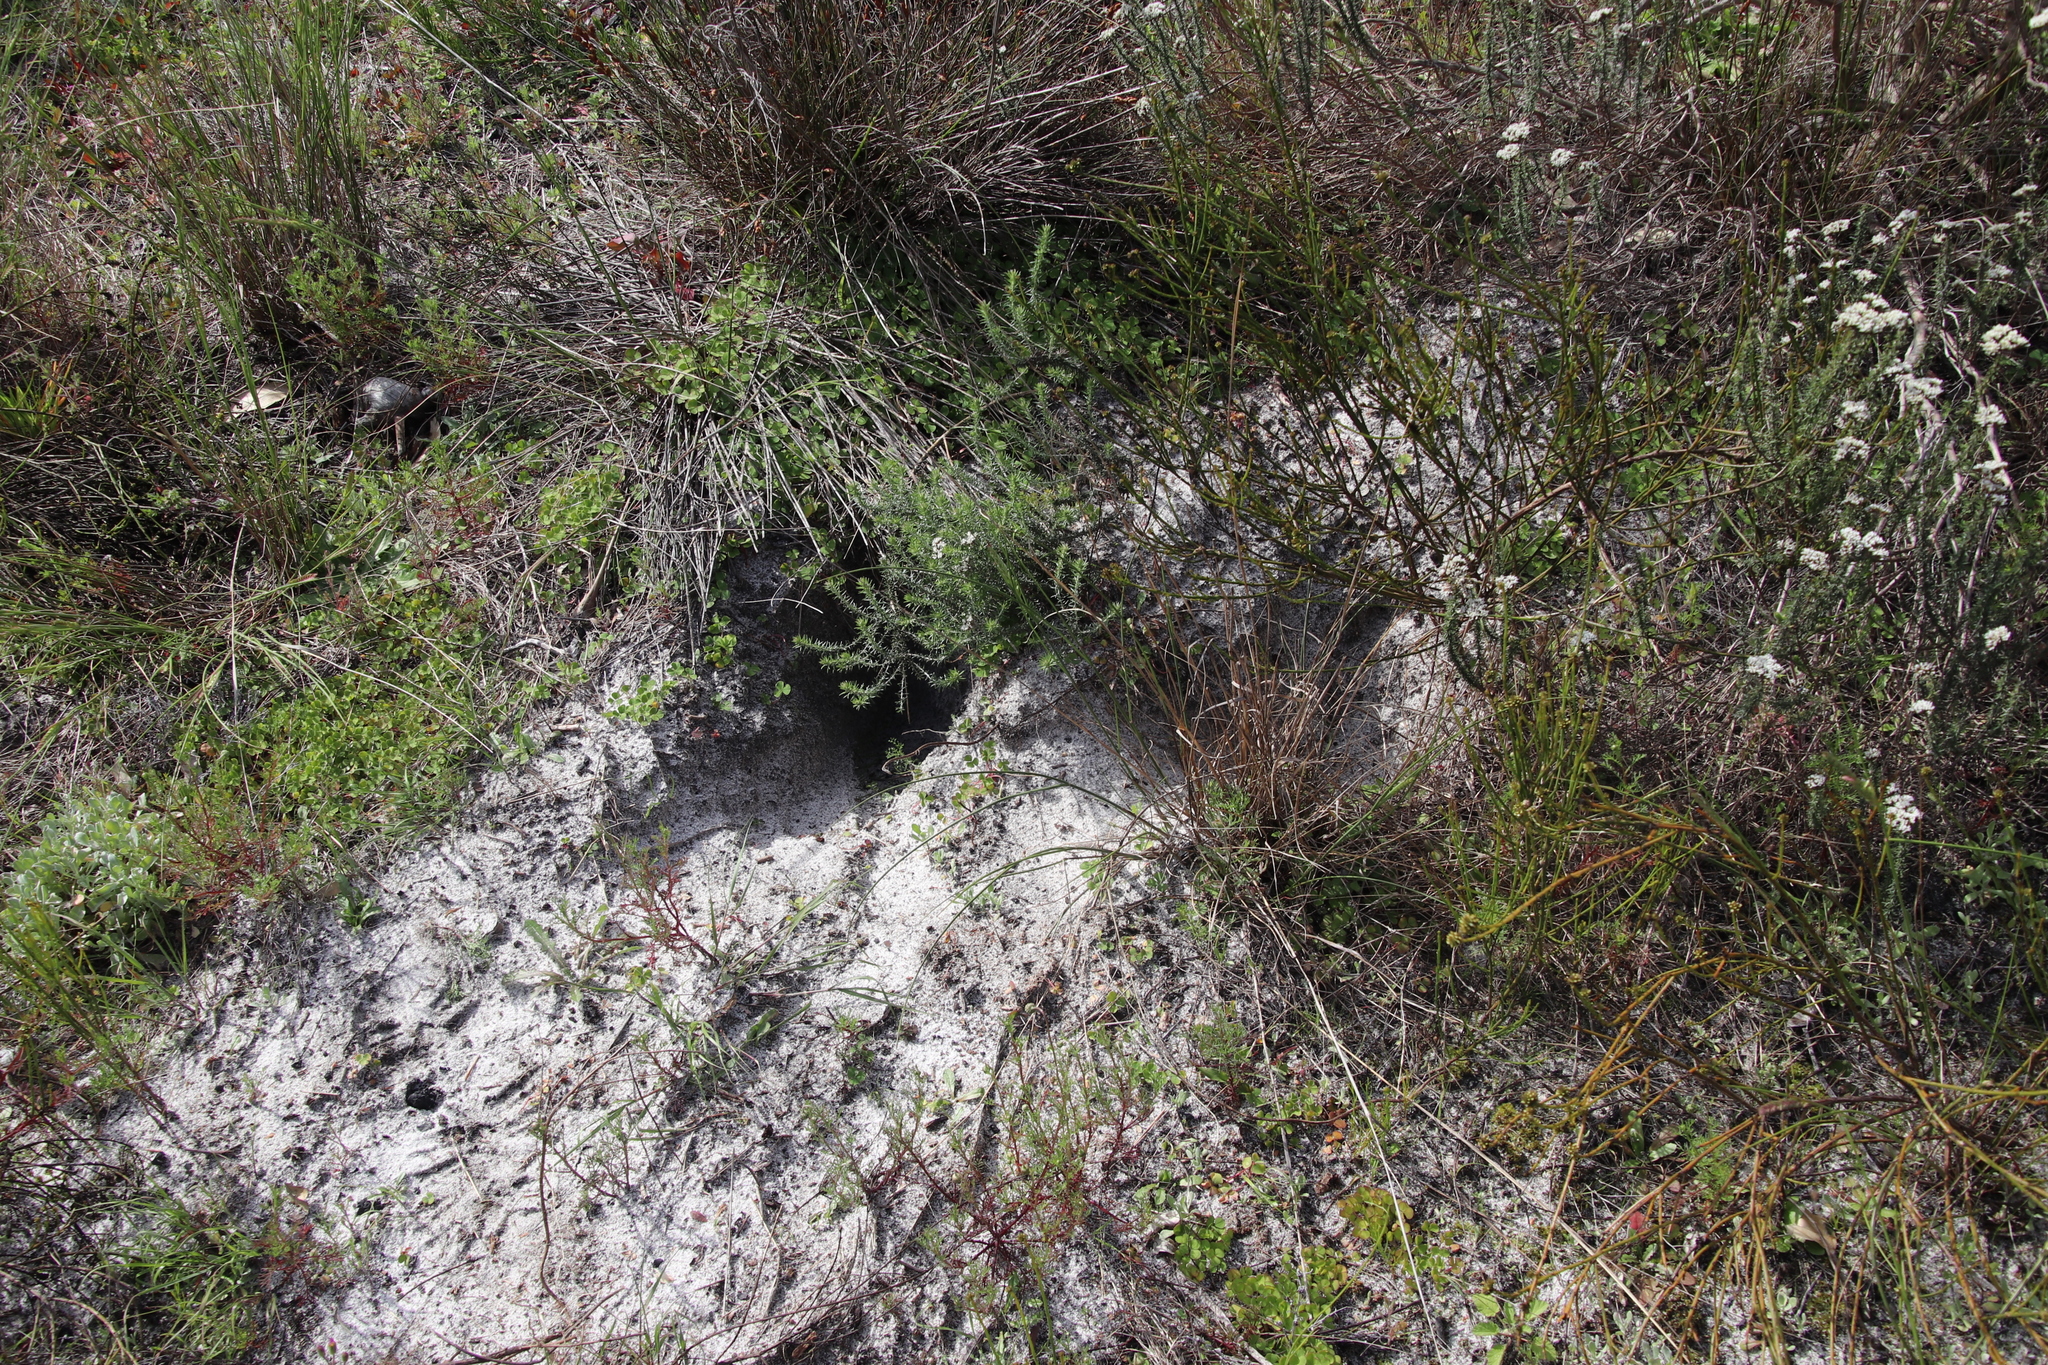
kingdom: Animalia
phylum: Chordata
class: Mammalia
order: Rodentia
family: Hystricidae
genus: Hystrix
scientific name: Hystrix africaeaustralis
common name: Cape porcupine
